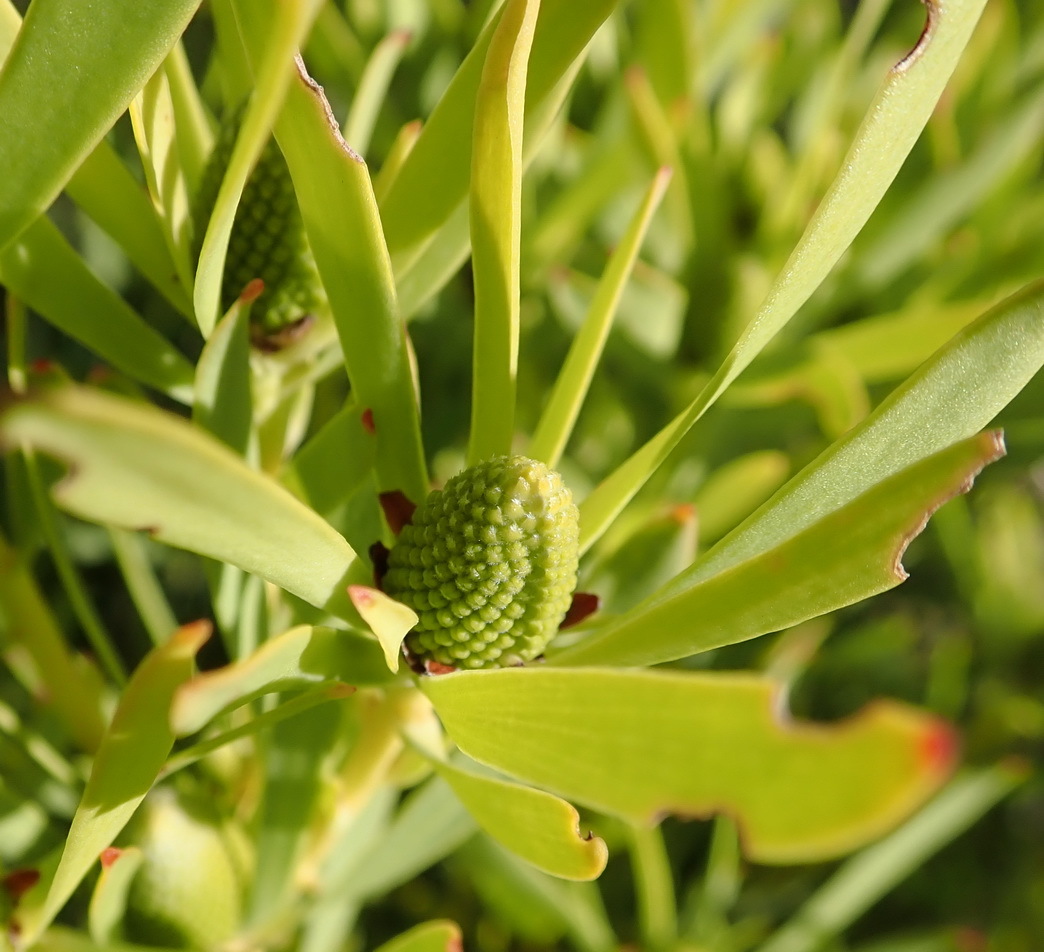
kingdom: Plantae
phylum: Tracheophyta
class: Magnoliopsida
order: Proteales
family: Proteaceae
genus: Leucadendron
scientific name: Leucadendron salignum
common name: Common sunshine conebush
